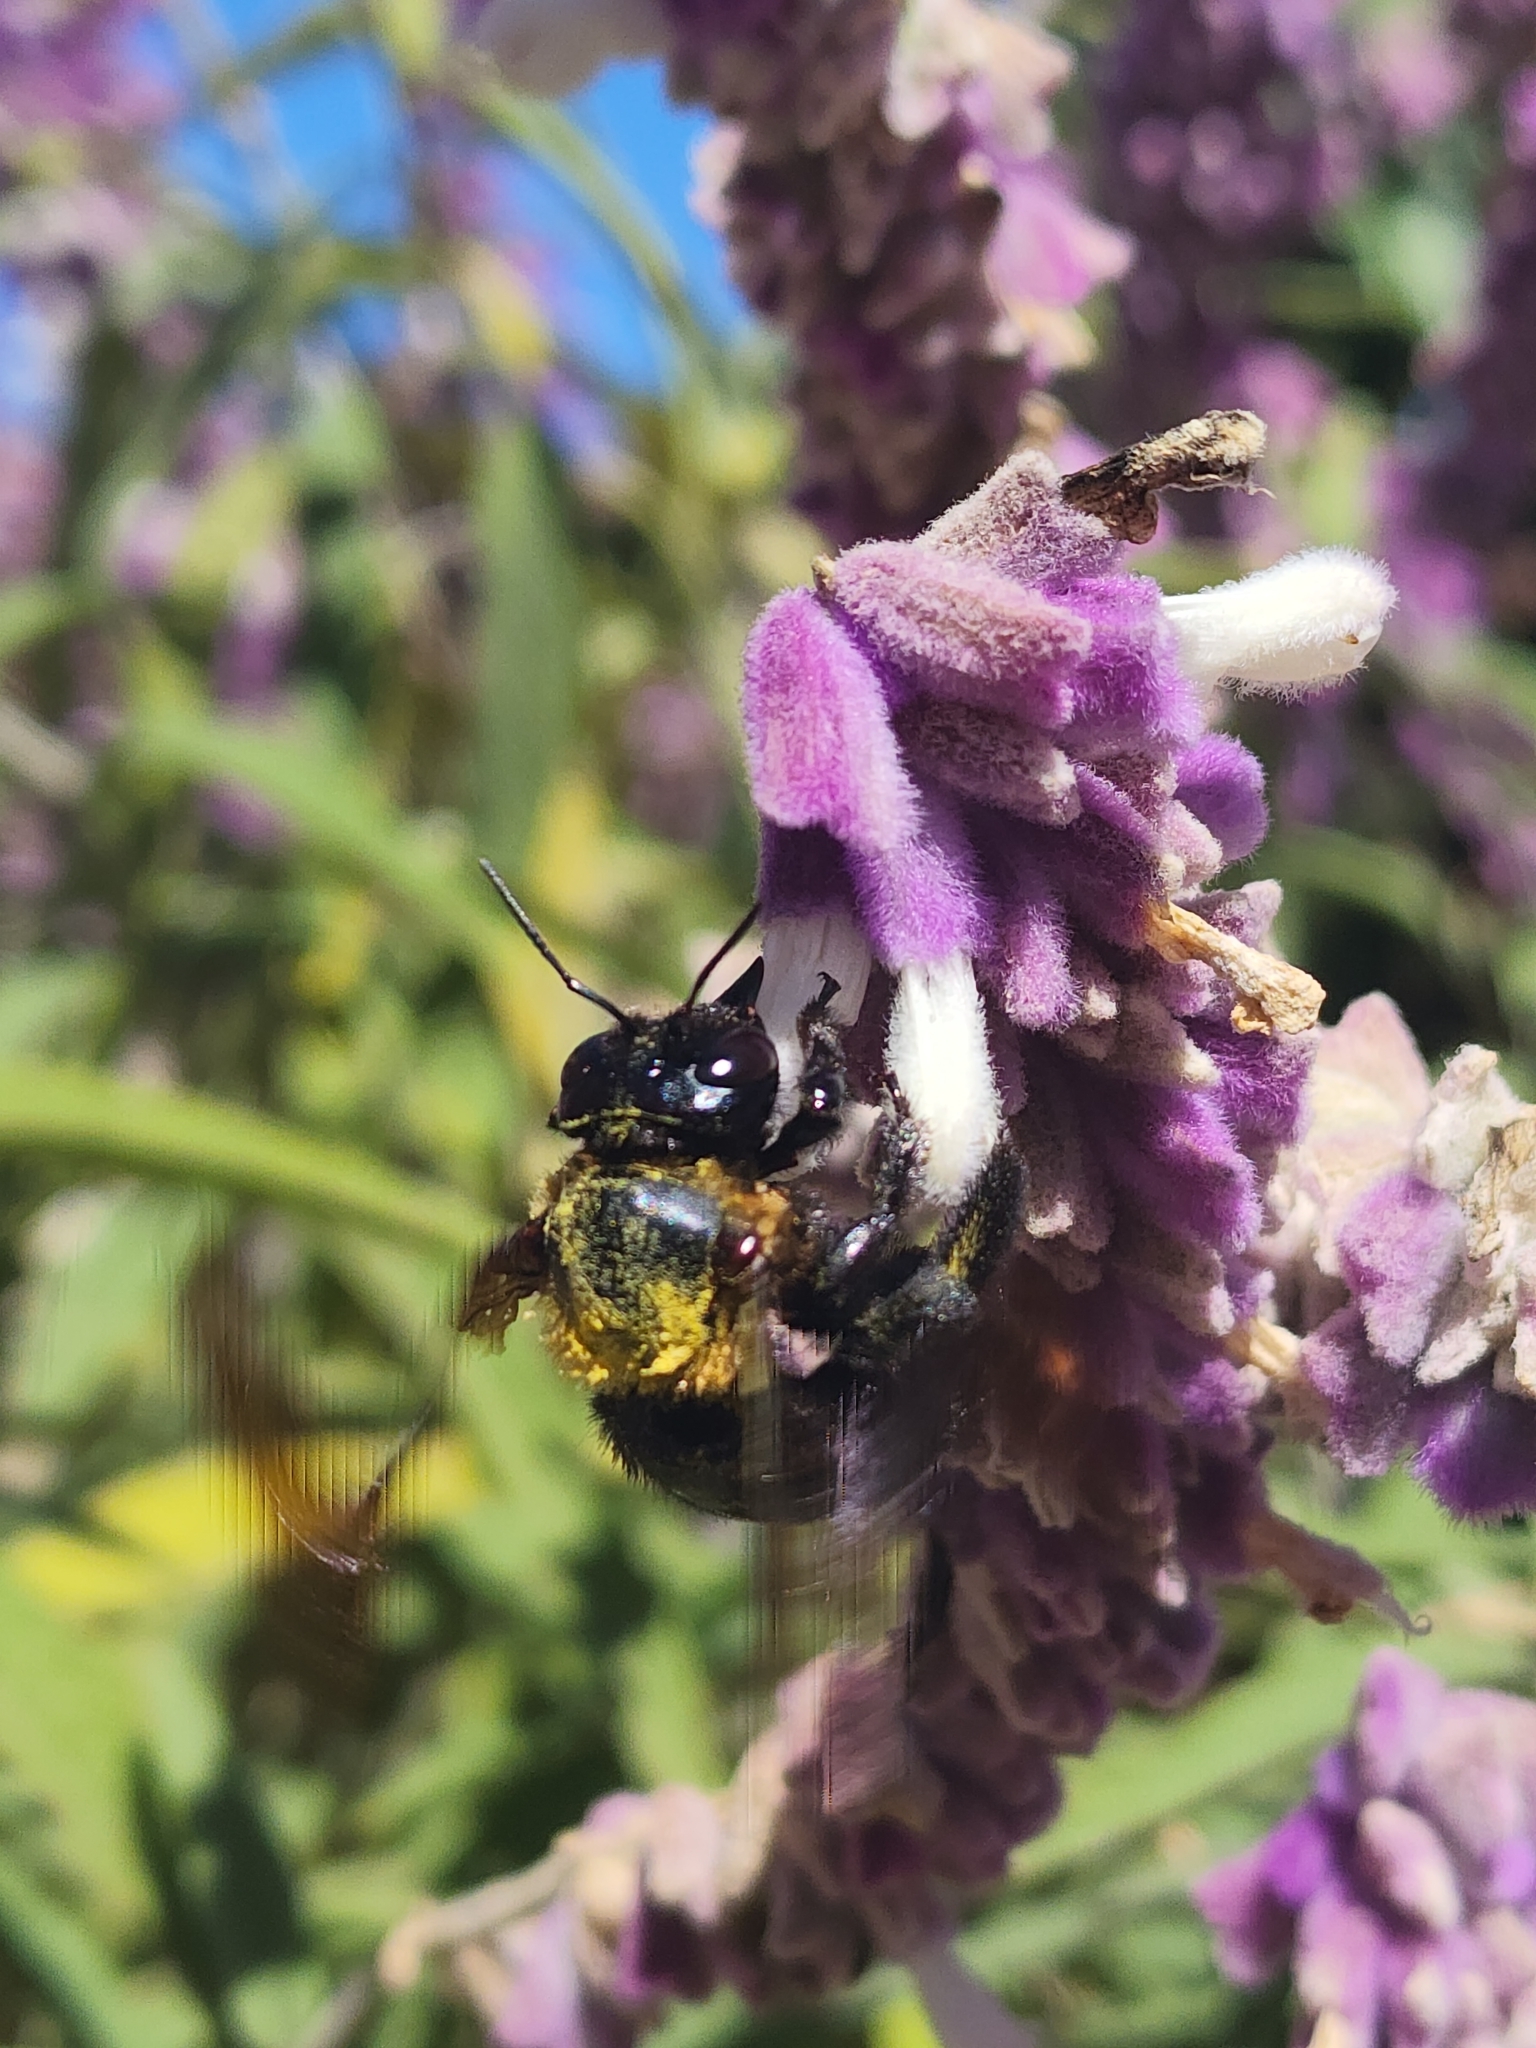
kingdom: Animalia
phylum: Arthropoda
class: Insecta
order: Hymenoptera
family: Apidae
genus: Xylocopa
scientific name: Xylocopa eximia
